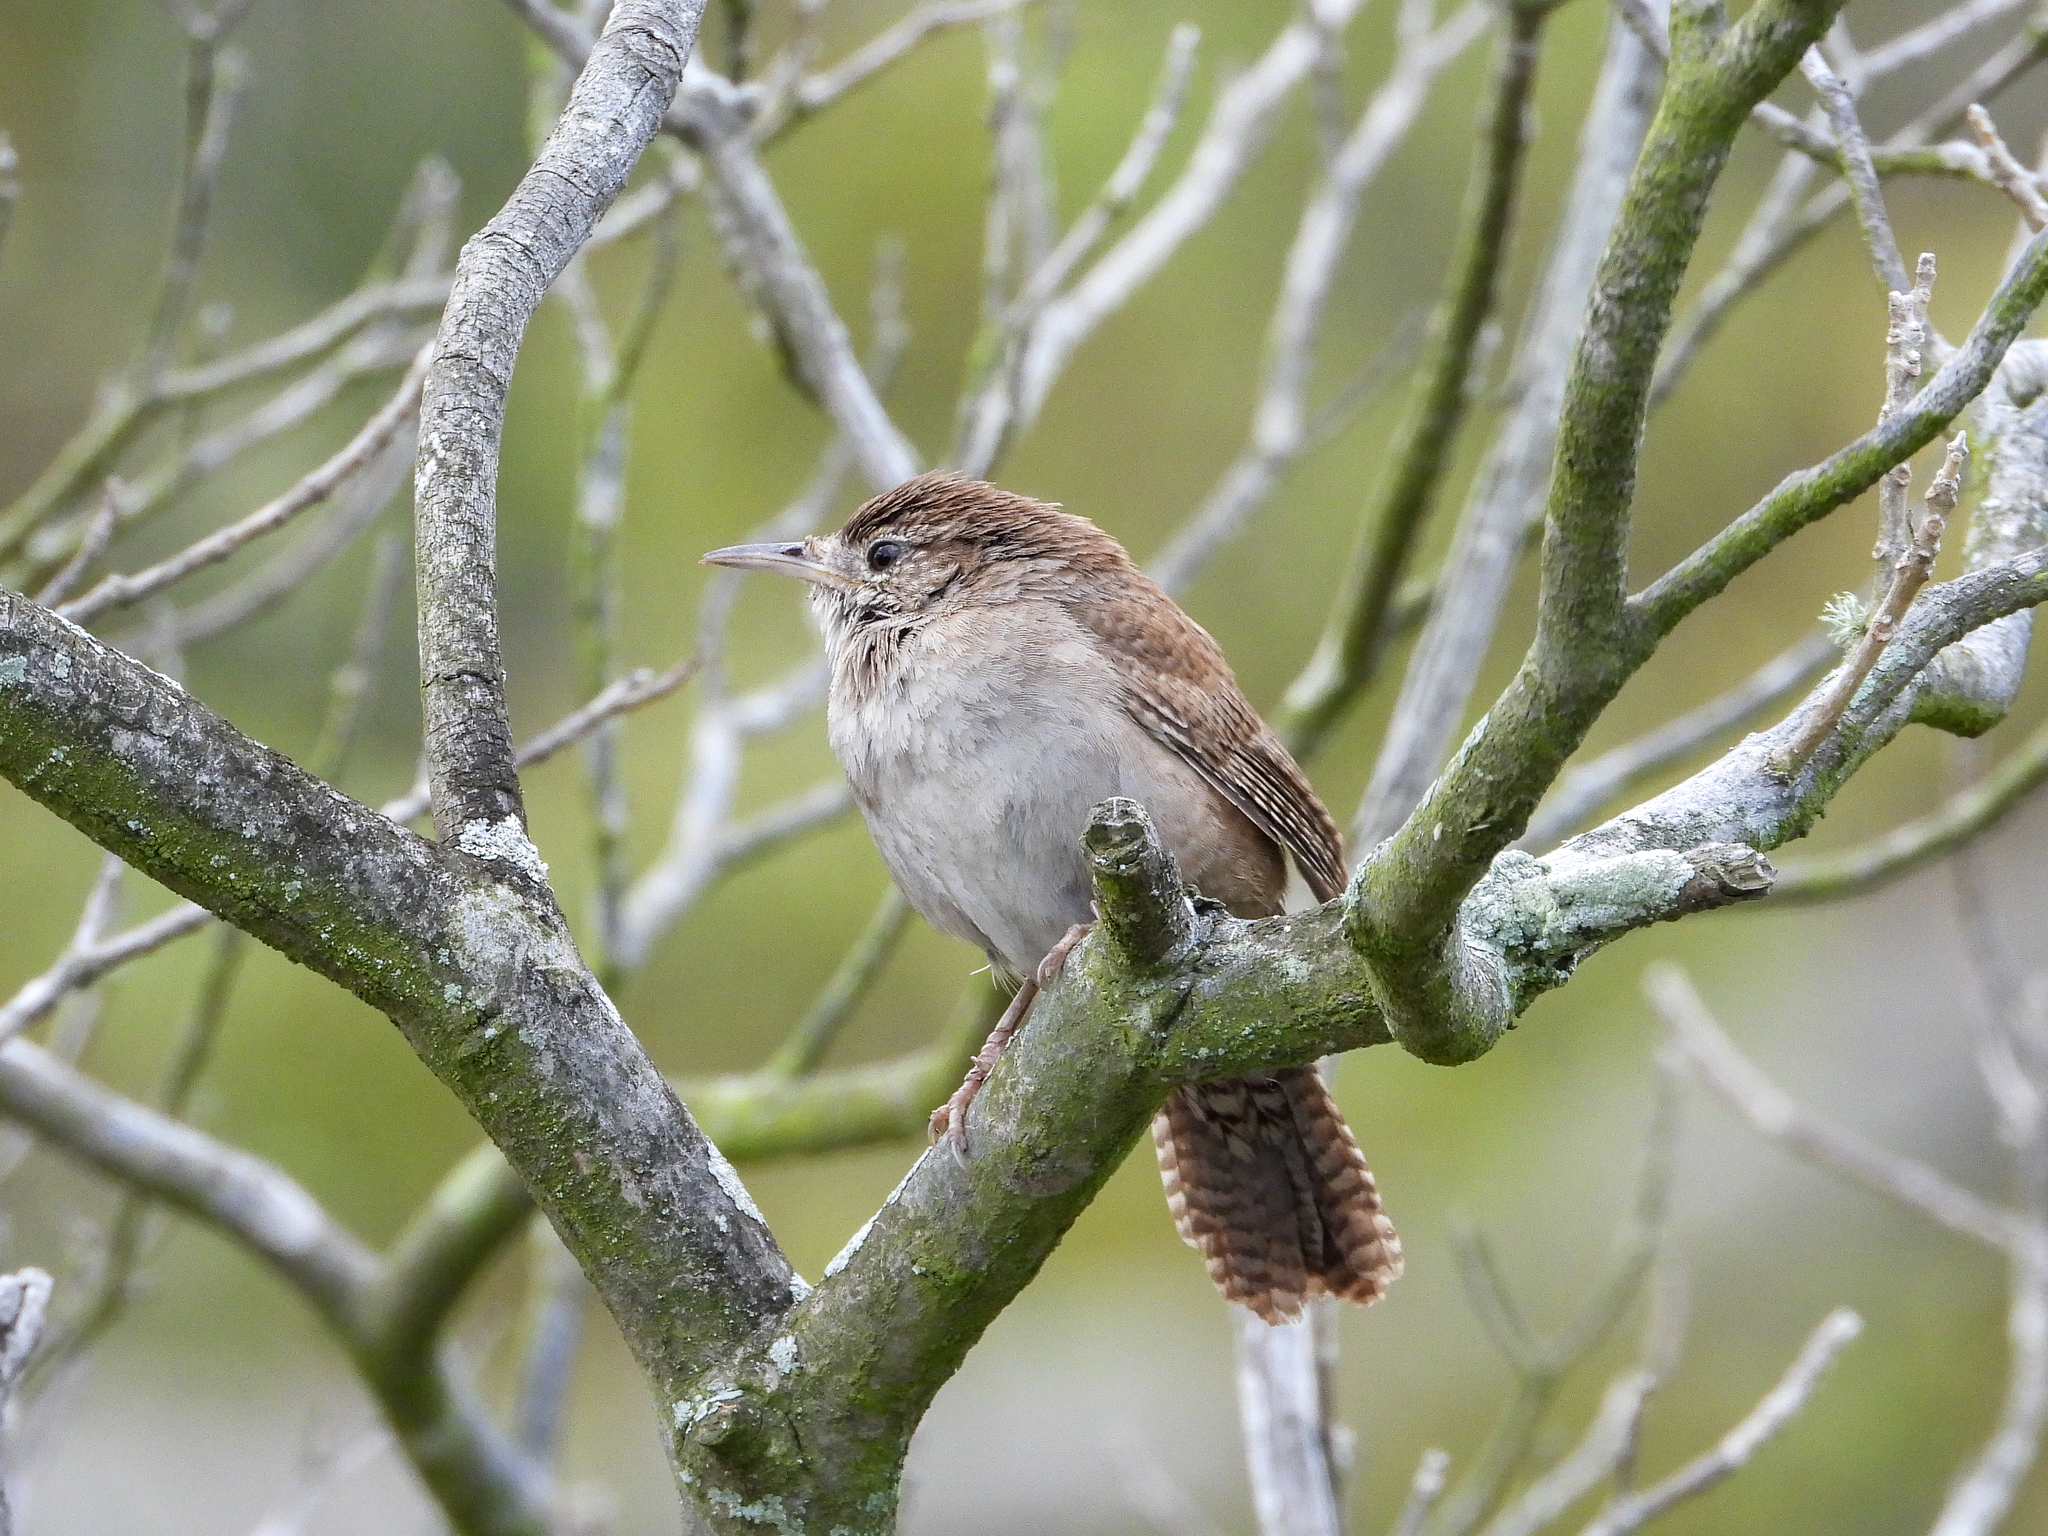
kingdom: Animalia
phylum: Chordata
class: Aves
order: Passeriformes
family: Troglodytidae
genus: Troglodytes
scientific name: Troglodytes aedon
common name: House wren
